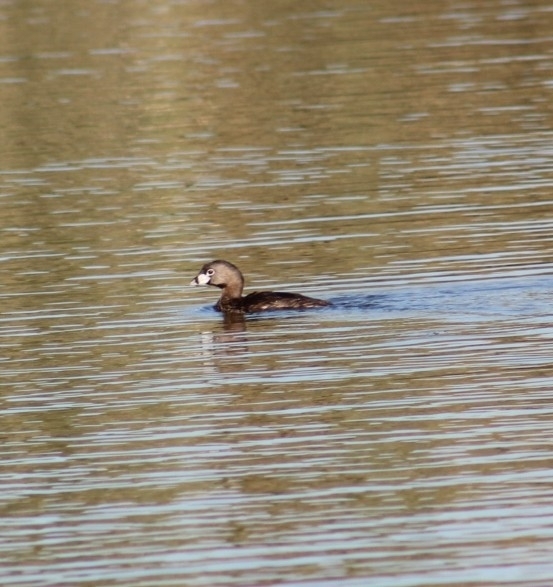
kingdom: Animalia
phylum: Chordata
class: Aves
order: Podicipediformes
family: Podicipedidae
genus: Podilymbus
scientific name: Podilymbus podiceps
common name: Pied-billed grebe
